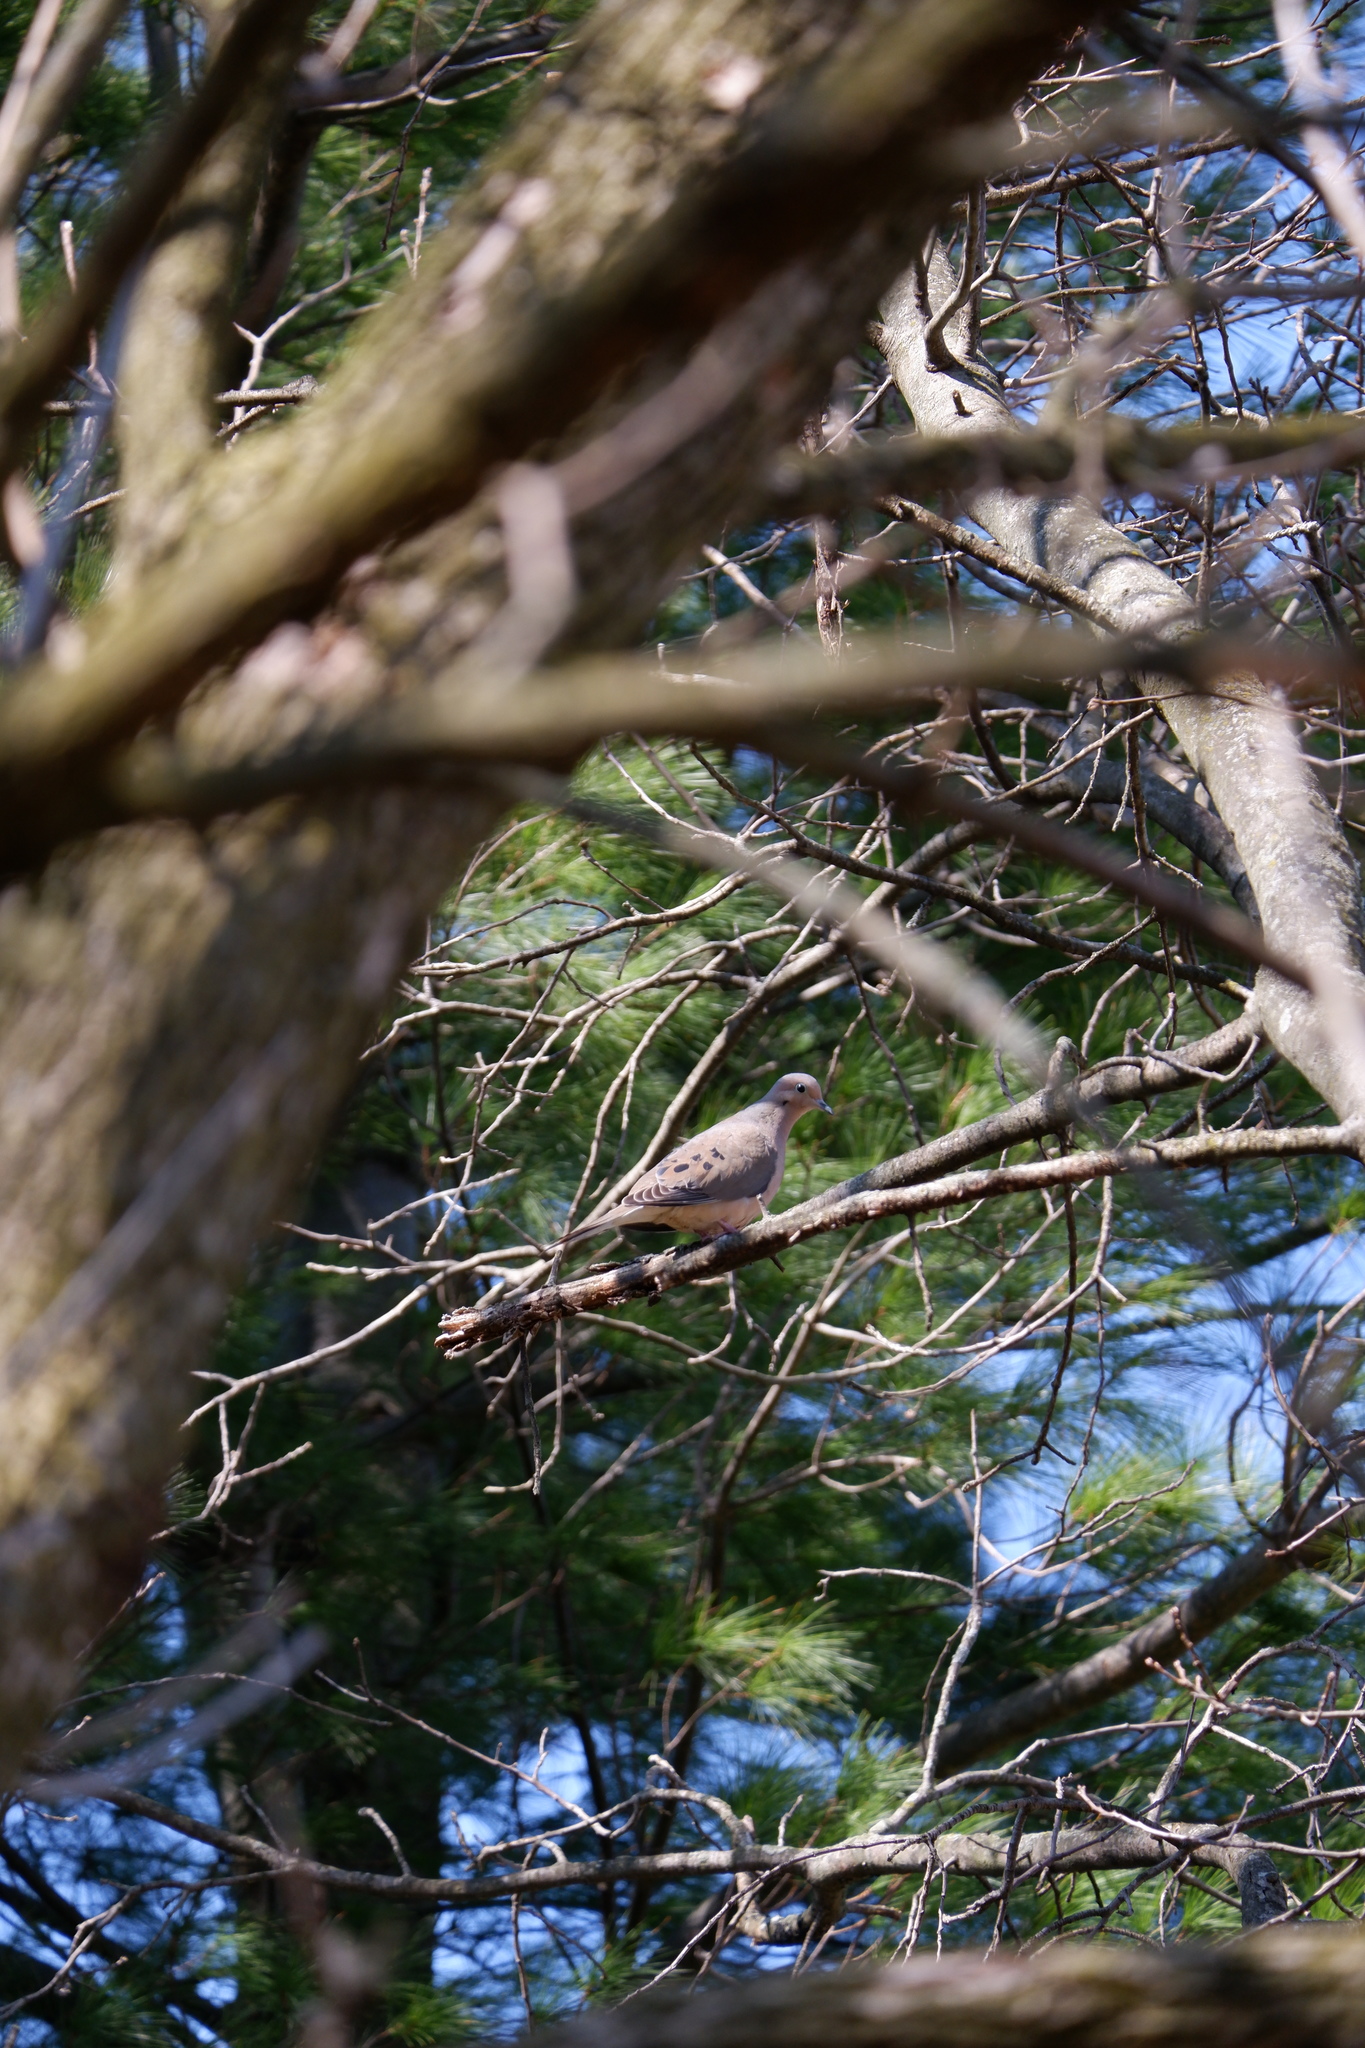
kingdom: Animalia
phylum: Chordata
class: Aves
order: Columbiformes
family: Columbidae
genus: Zenaida
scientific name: Zenaida macroura
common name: Mourning dove
